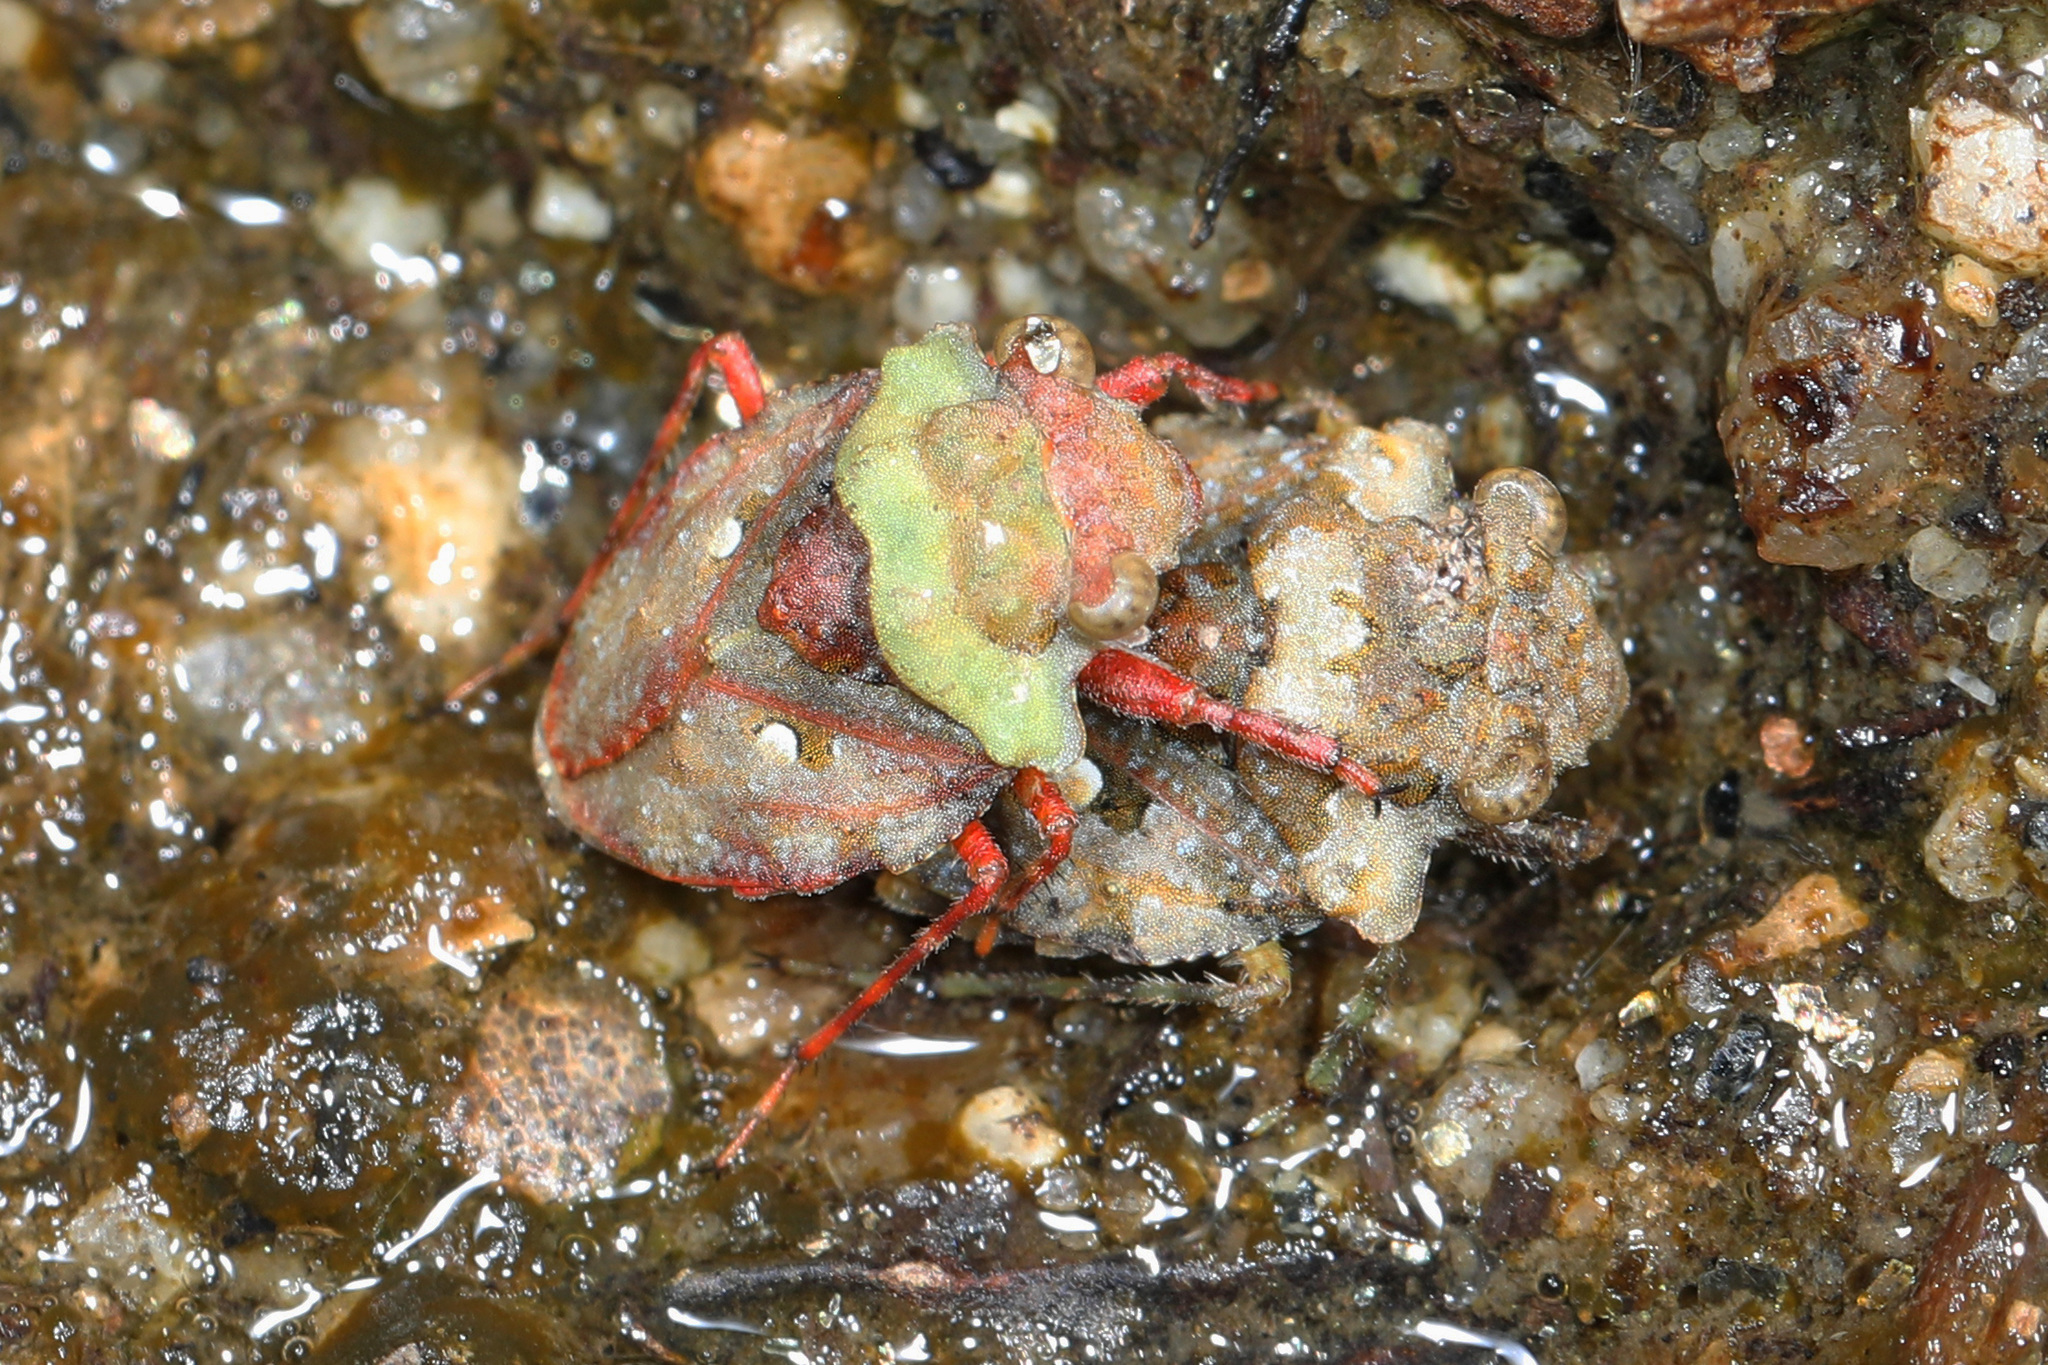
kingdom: Animalia
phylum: Arthropoda
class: Insecta
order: Hemiptera
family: Gelastocoridae
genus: Gelastocoris
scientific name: Gelastocoris oculatus
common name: Toad bug
